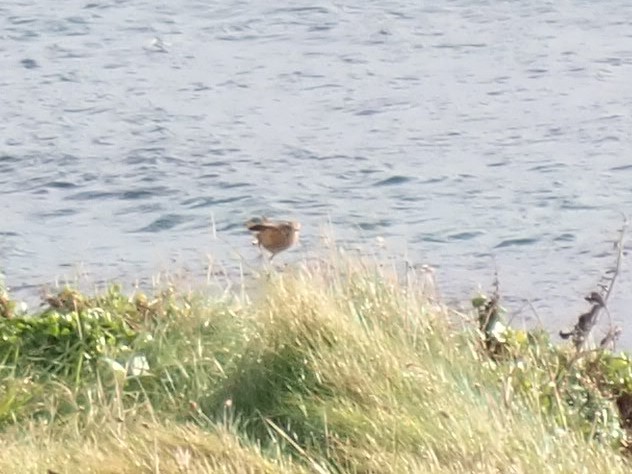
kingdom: Animalia
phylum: Chordata
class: Aves
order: Passeriformes
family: Muscicapidae
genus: Saxicola
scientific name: Saxicola rubicola
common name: European stonechat
